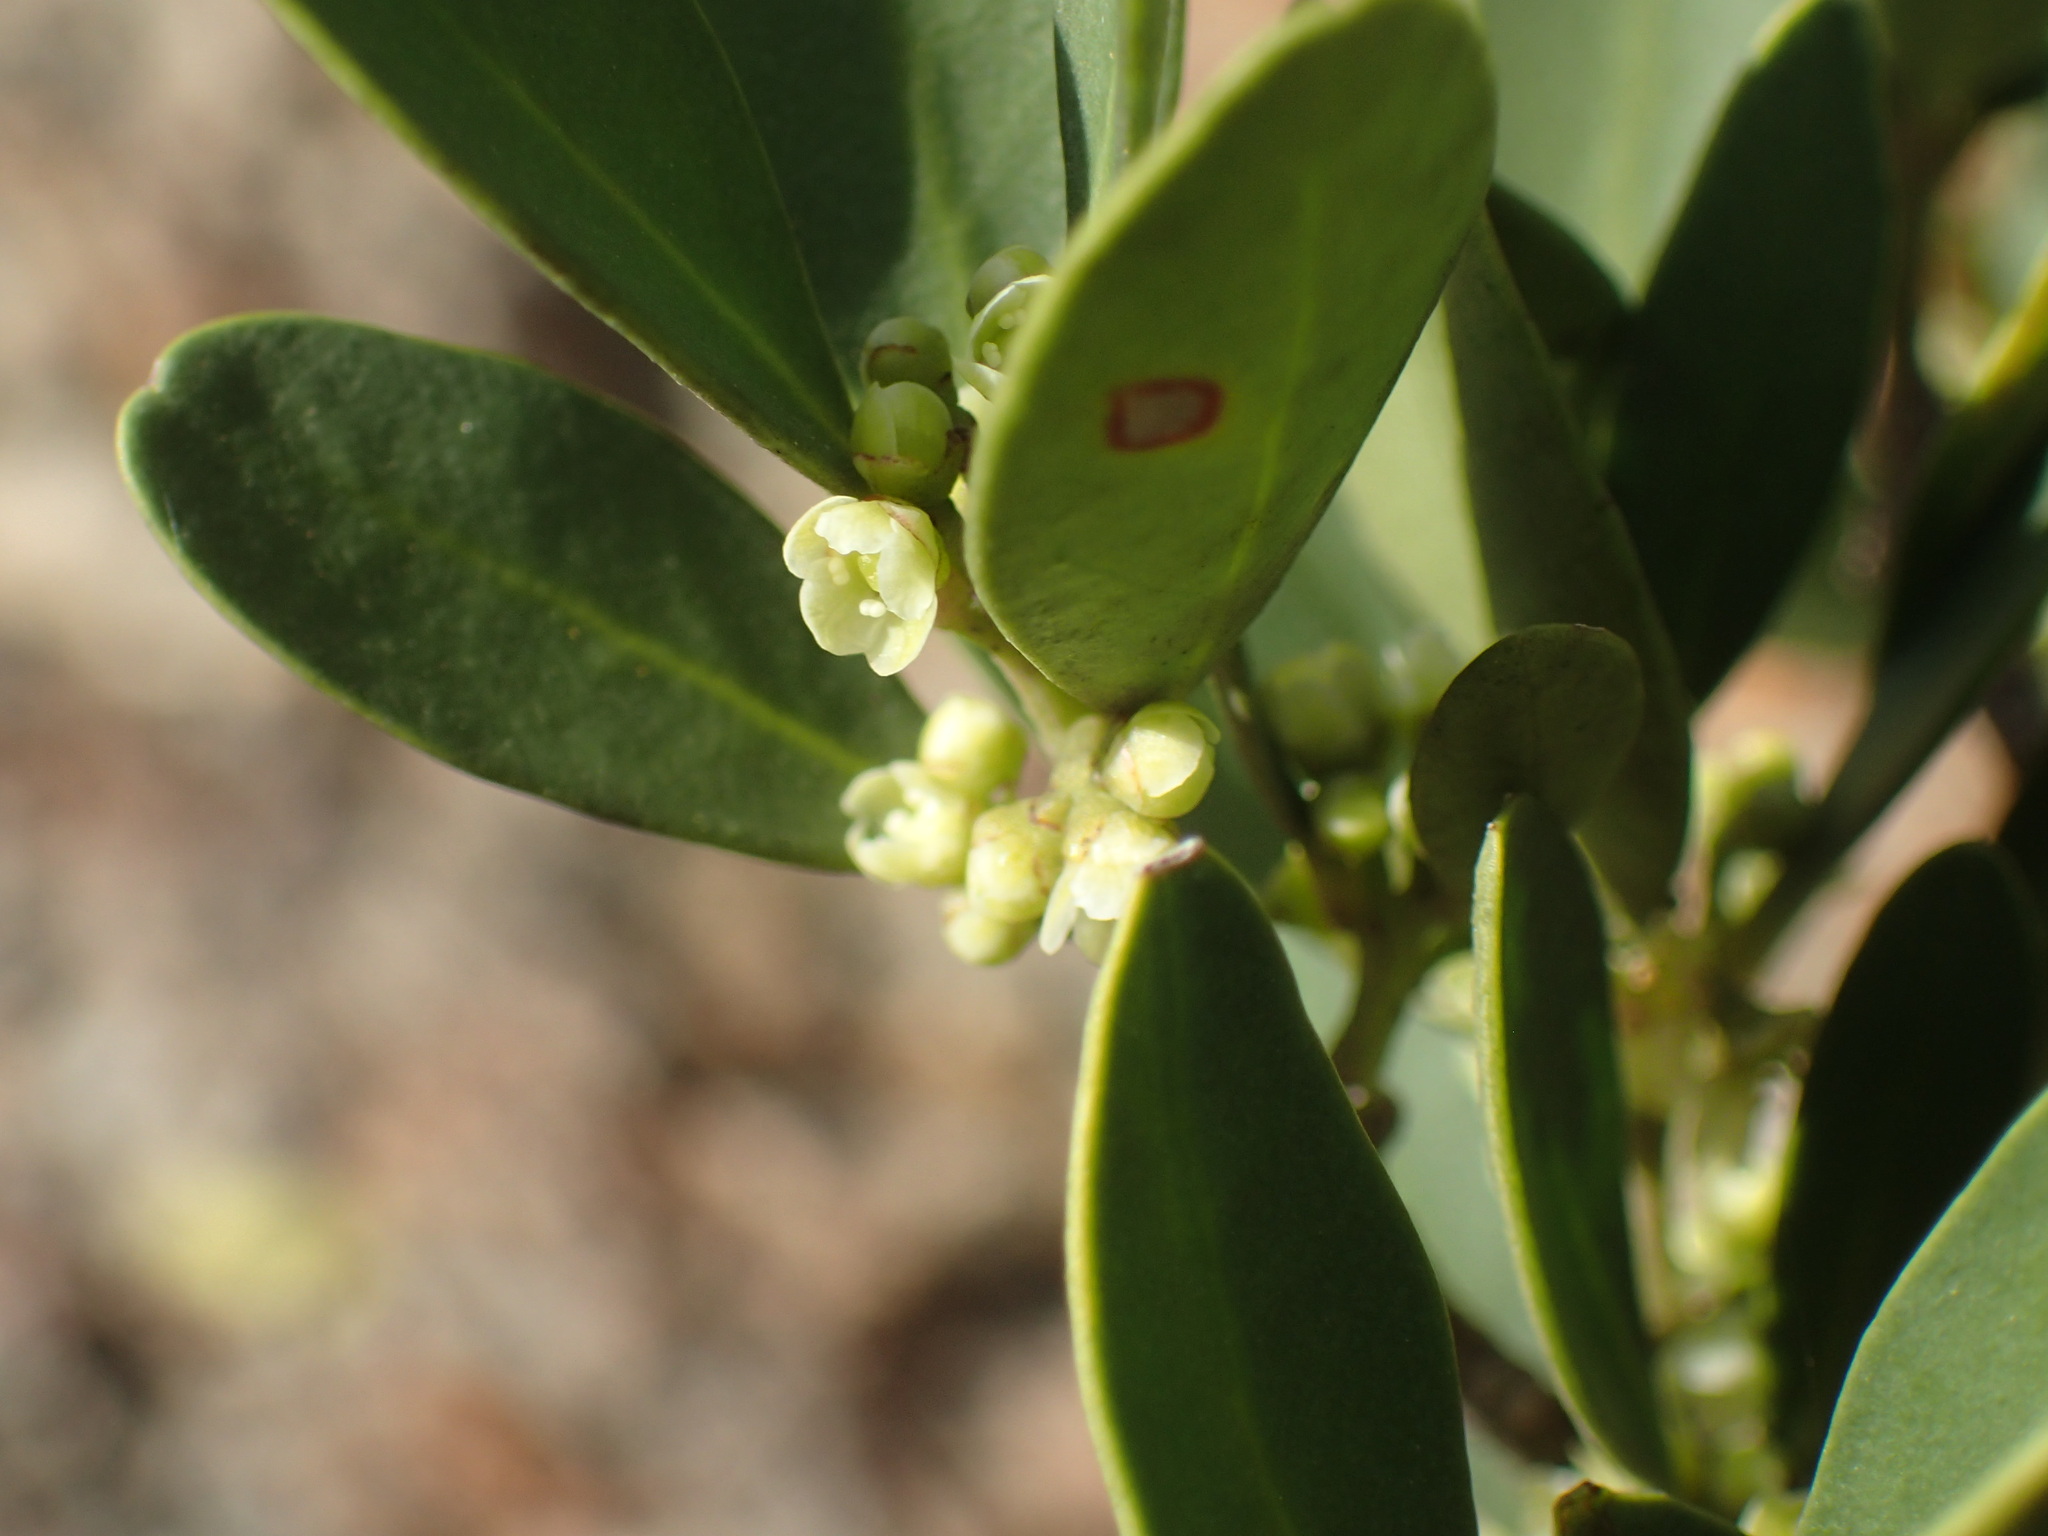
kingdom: Plantae
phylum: Tracheophyta
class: Magnoliopsida
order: Celastrales
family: Celastraceae
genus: Gymnosporia
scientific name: Gymnosporia laurina
